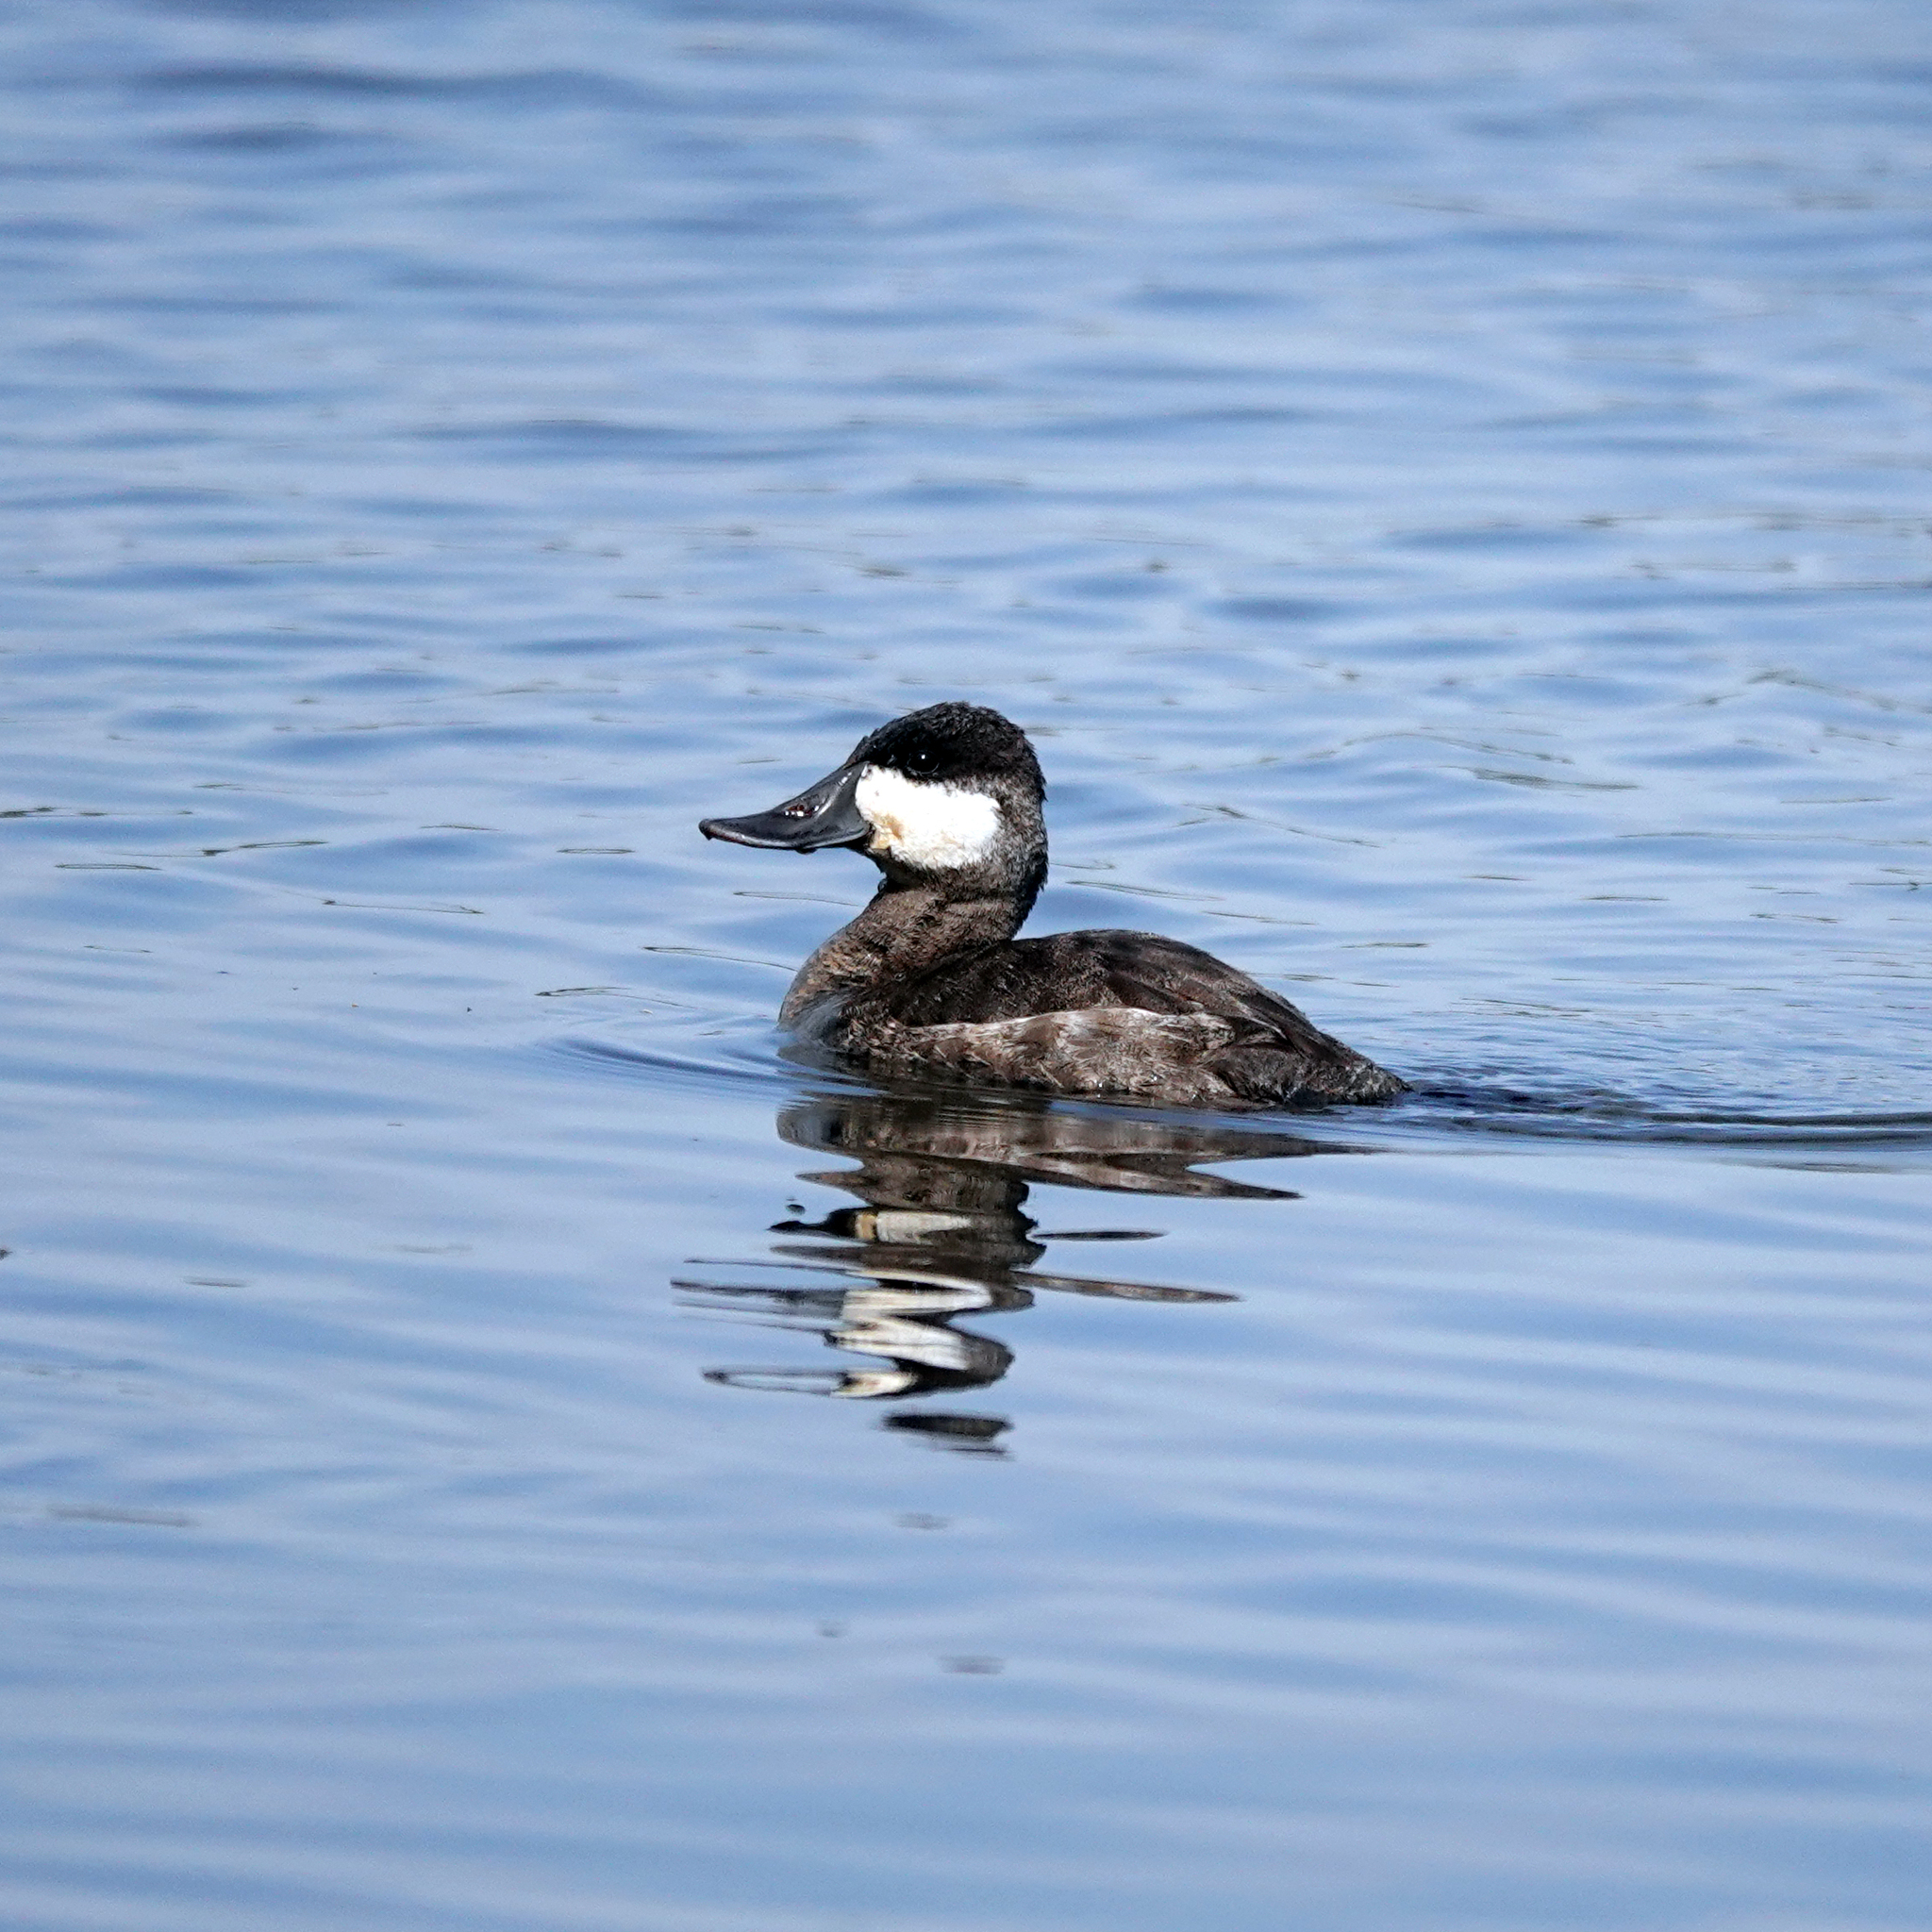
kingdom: Animalia
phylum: Chordata
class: Aves
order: Anseriformes
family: Anatidae
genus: Oxyura
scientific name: Oxyura jamaicensis
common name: Ruddy duck
